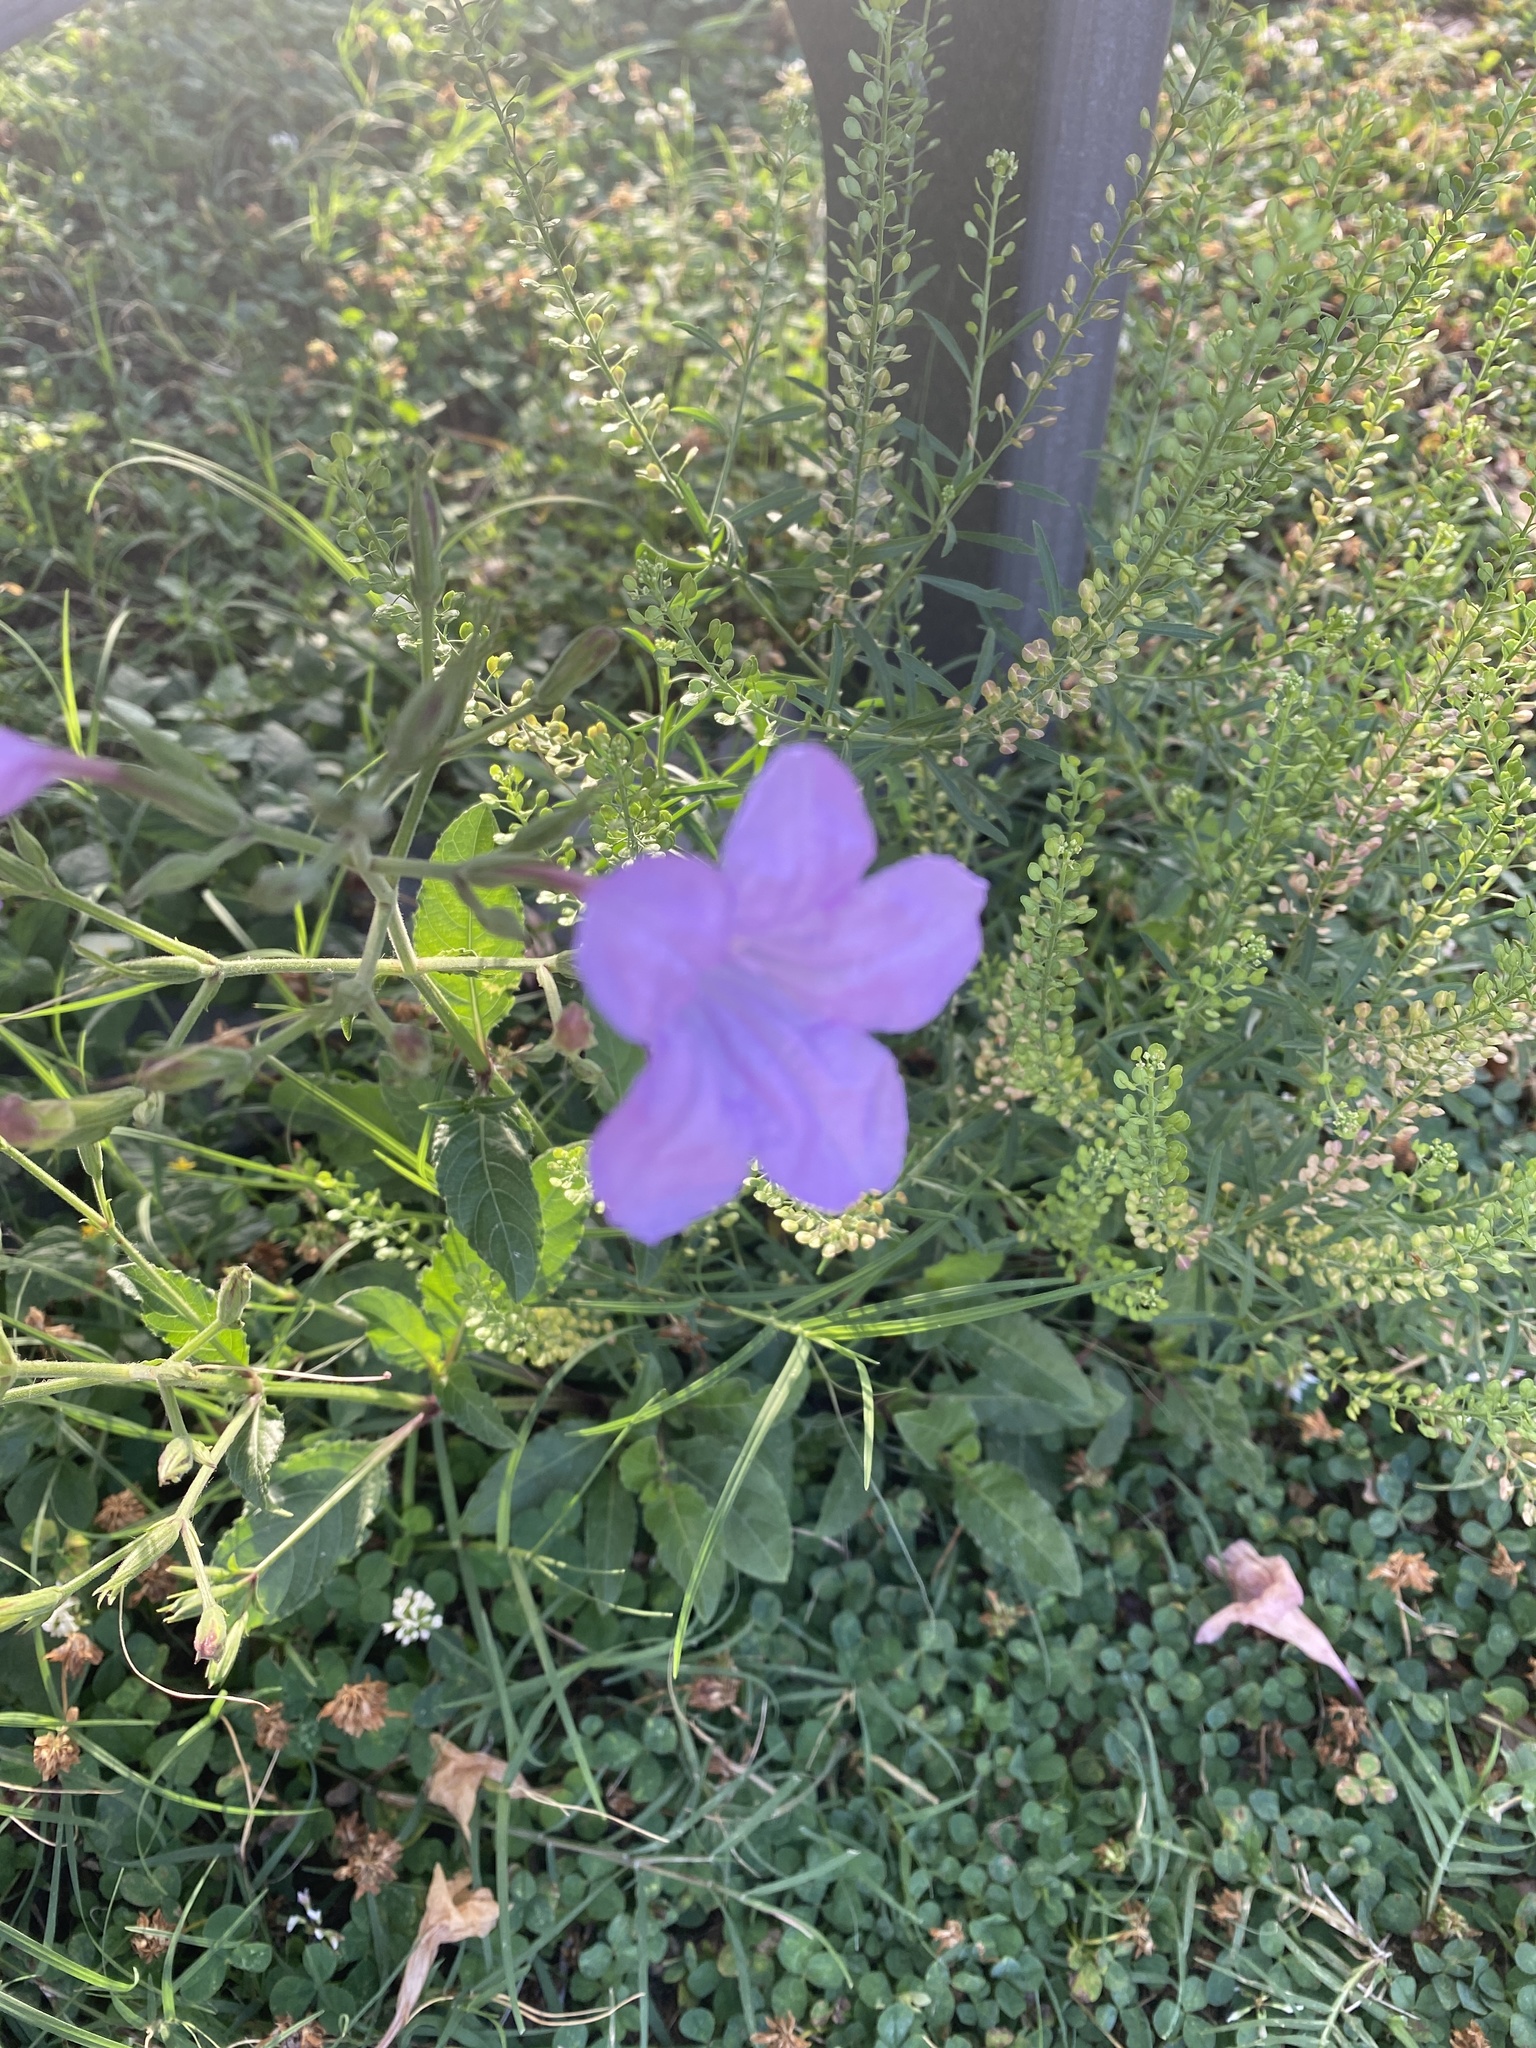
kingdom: Plantae
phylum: Tracheophyta
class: Magnoliopsida
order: Lamiales
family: Acanthaceae
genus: Ruellia
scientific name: Ruellia ciliatiflora
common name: Hairyflower wild petunia
